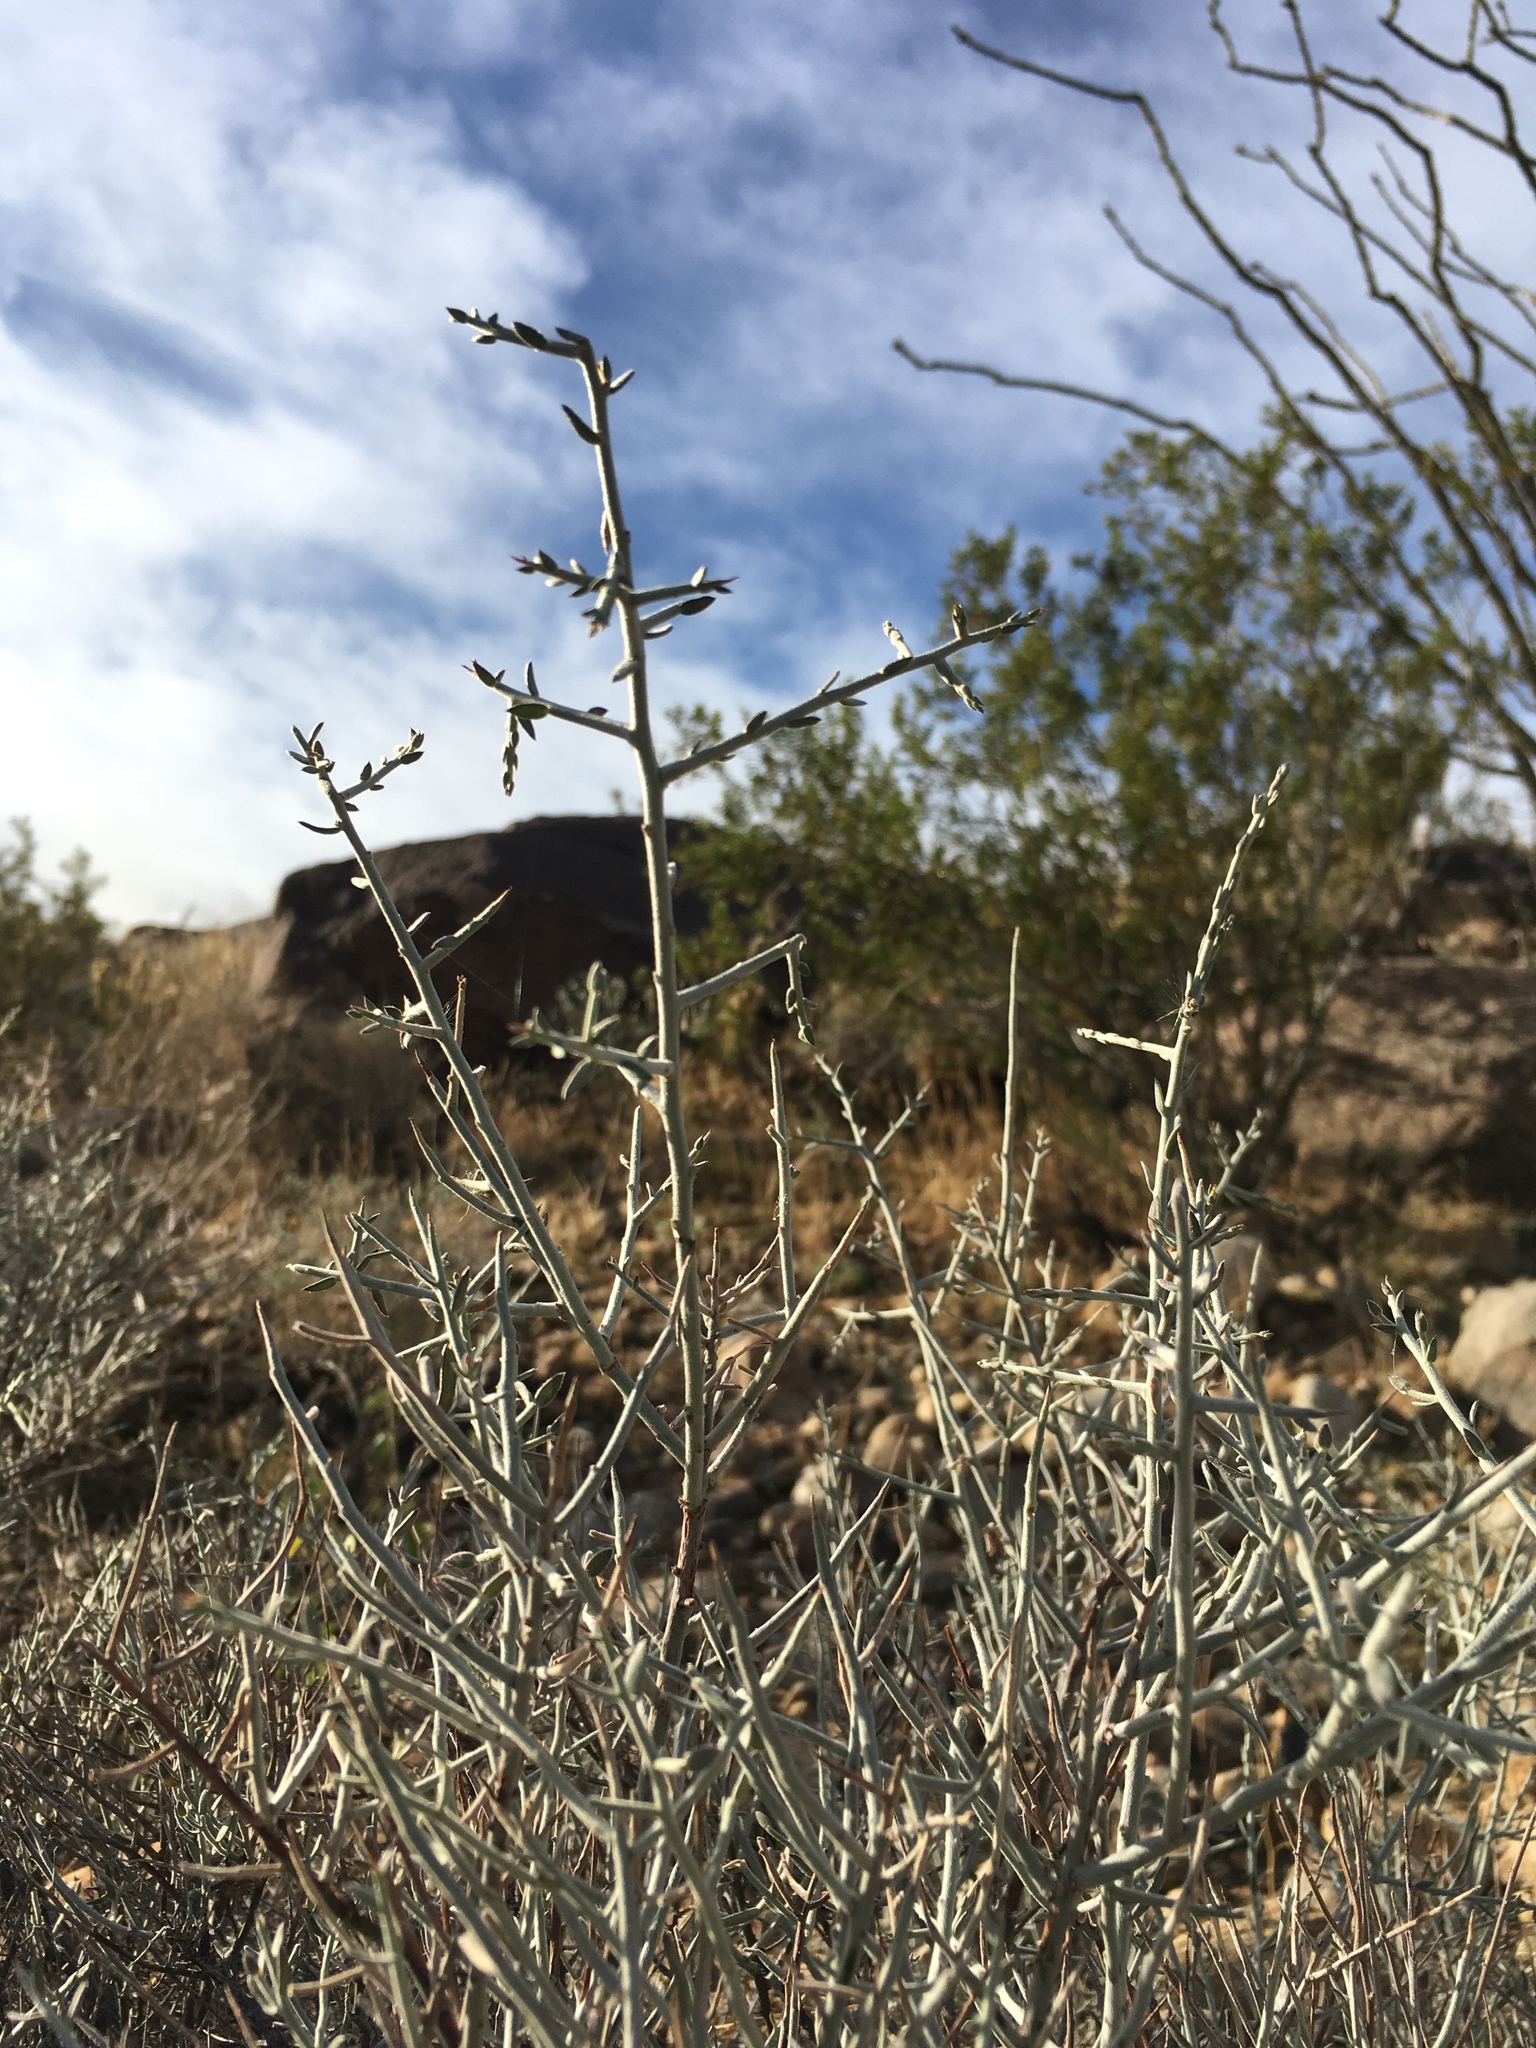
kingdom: Plantae
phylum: Tracheophyta
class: Magnoliopsida
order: Zygophyllales
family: Krameriaceae
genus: Krameria
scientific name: Krameria bicolor
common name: White ratany
